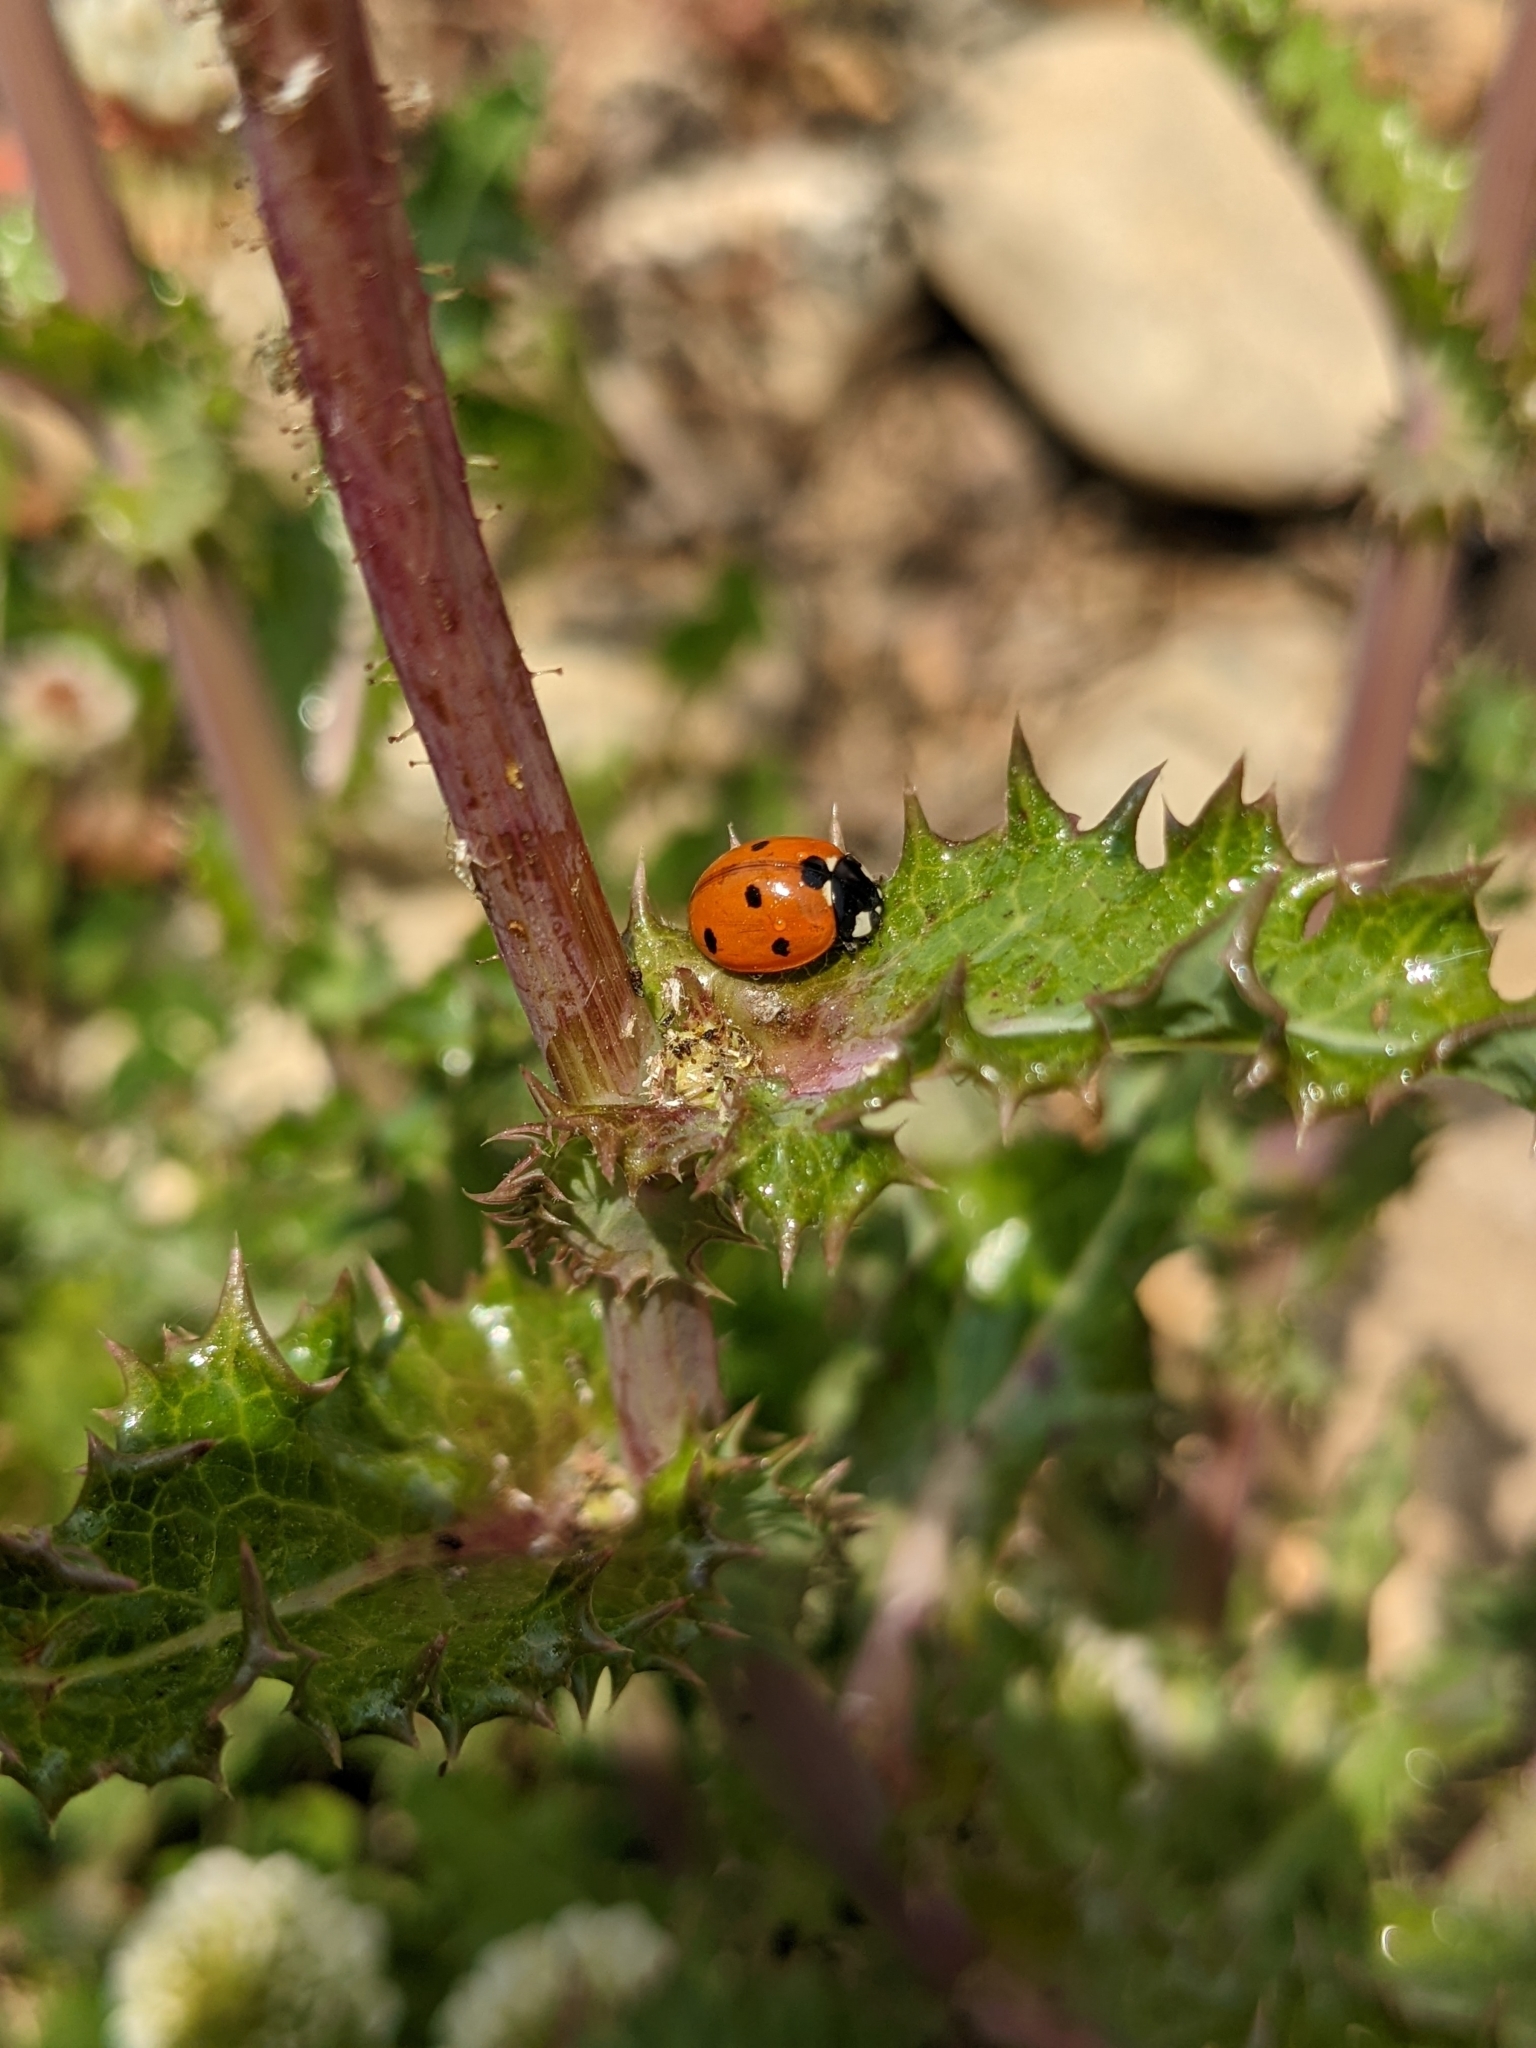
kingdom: Animalia
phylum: Arthropoda
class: Insecta
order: Coleoptera
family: Coccinellidae
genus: Coccinella
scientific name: Coccinella septempunctata
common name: Sevenspotted lady beetle
